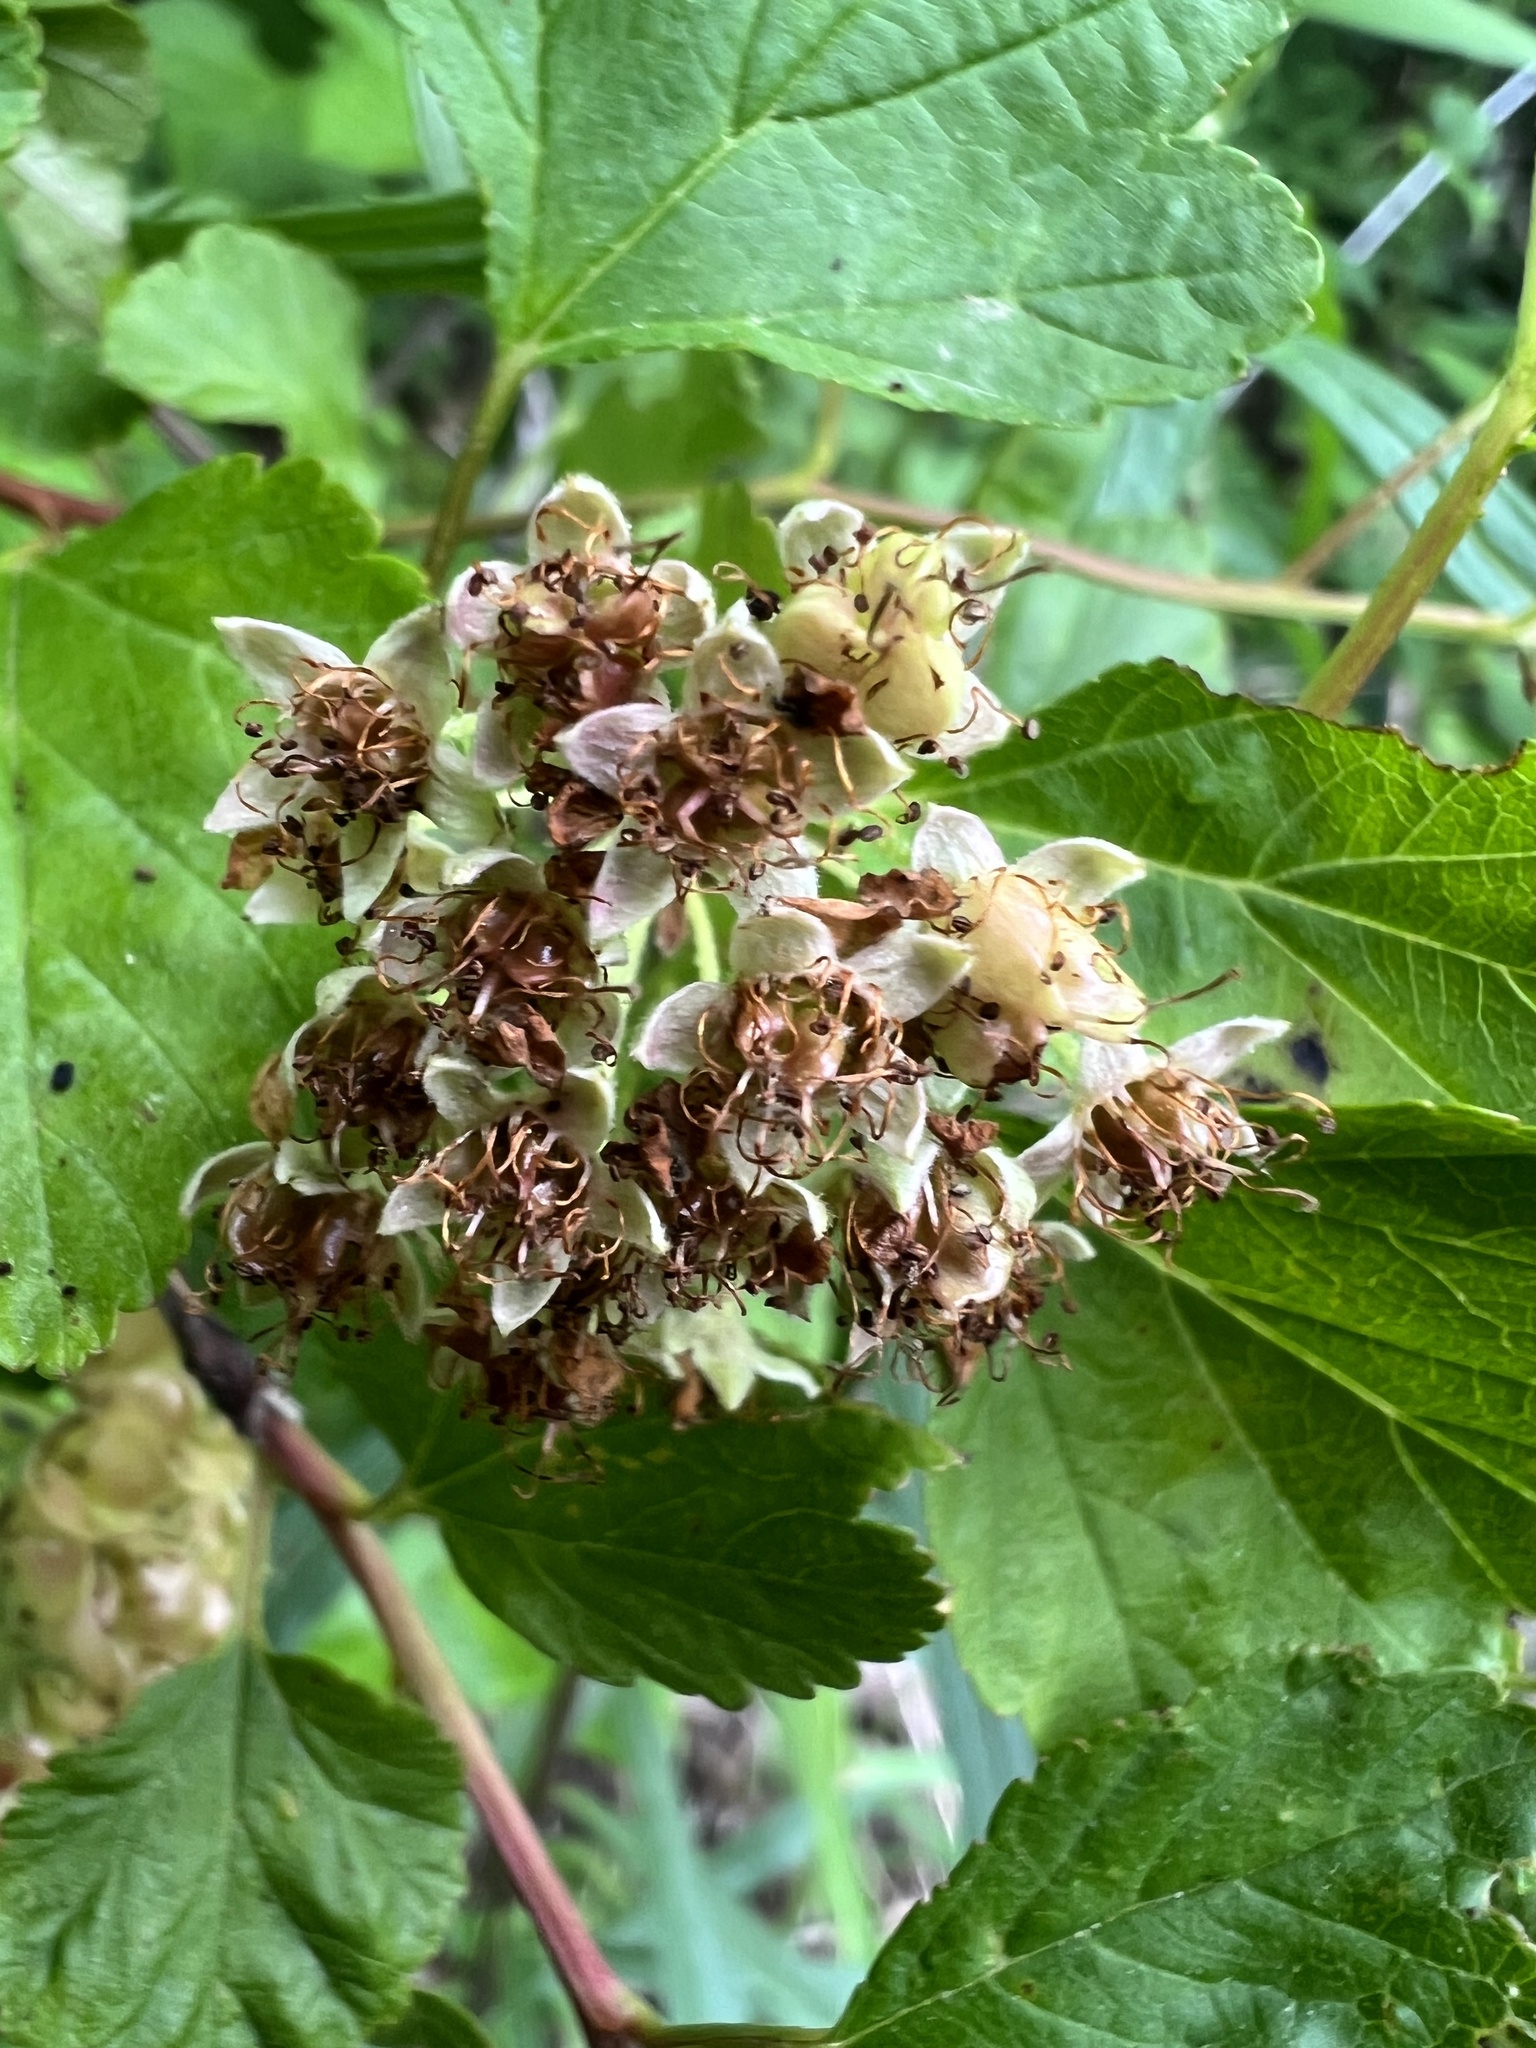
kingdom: Plantae
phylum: Tracheophyta
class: Magnoliopsida
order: Rosales
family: Rosaceae
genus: Physocarpus
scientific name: Physocarpus opulifolius
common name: Ninebark
